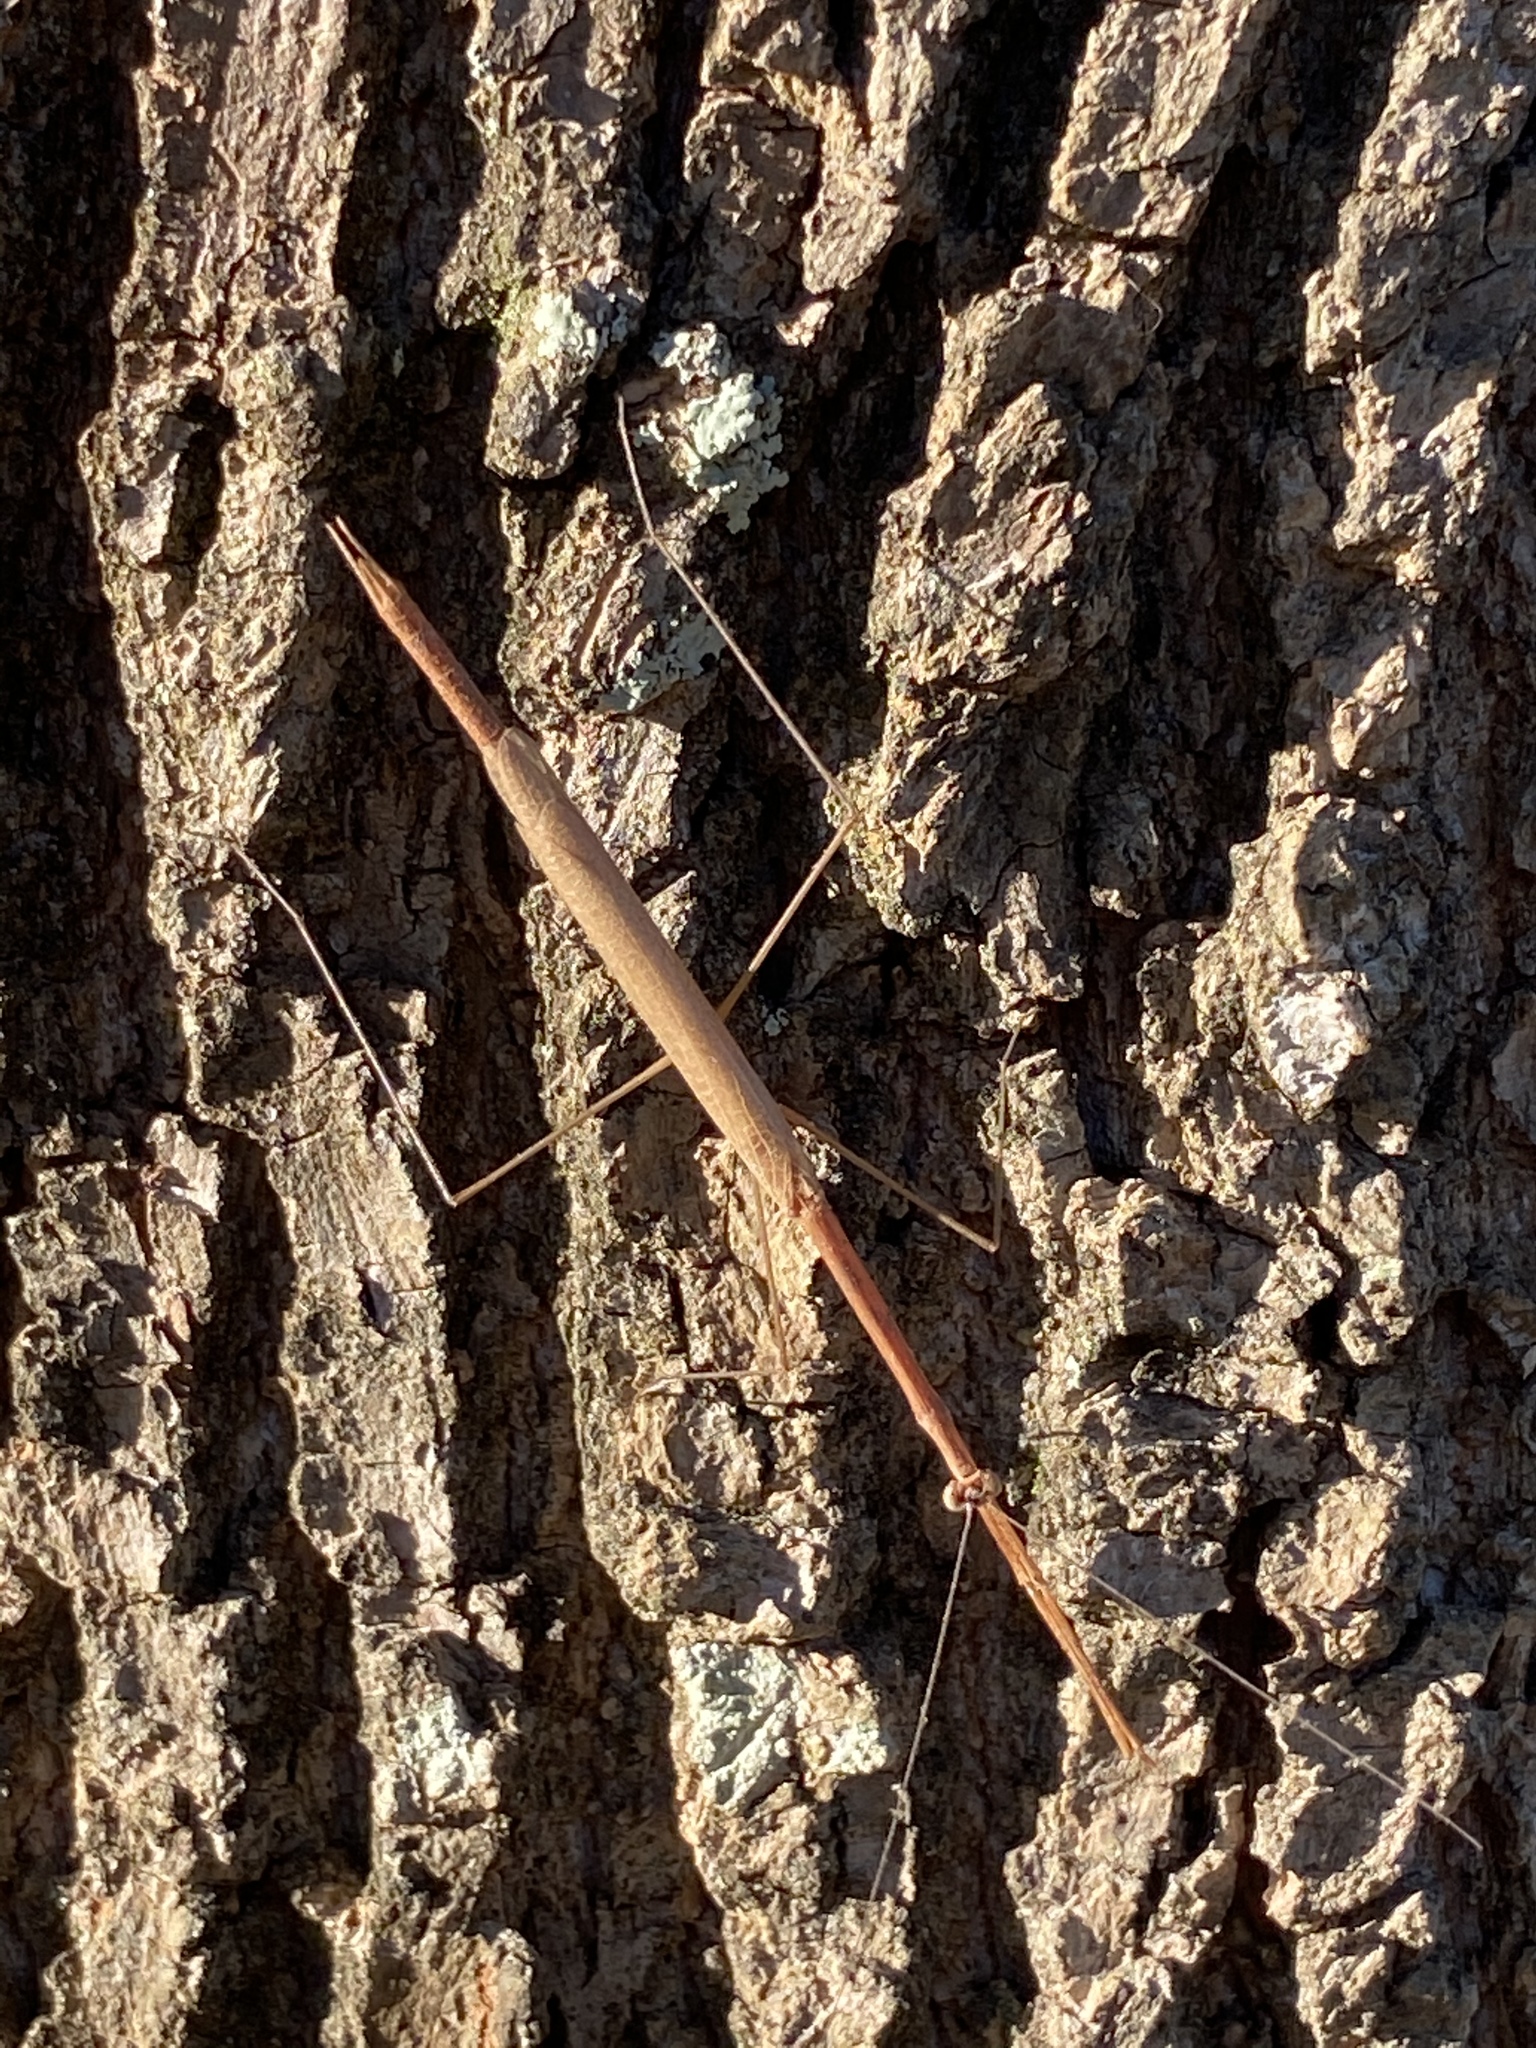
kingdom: Animalia
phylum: Arthropoda
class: Insecta
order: Mantodea
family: Thespidae
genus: Thesprotia
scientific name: Thesprotia graminis
